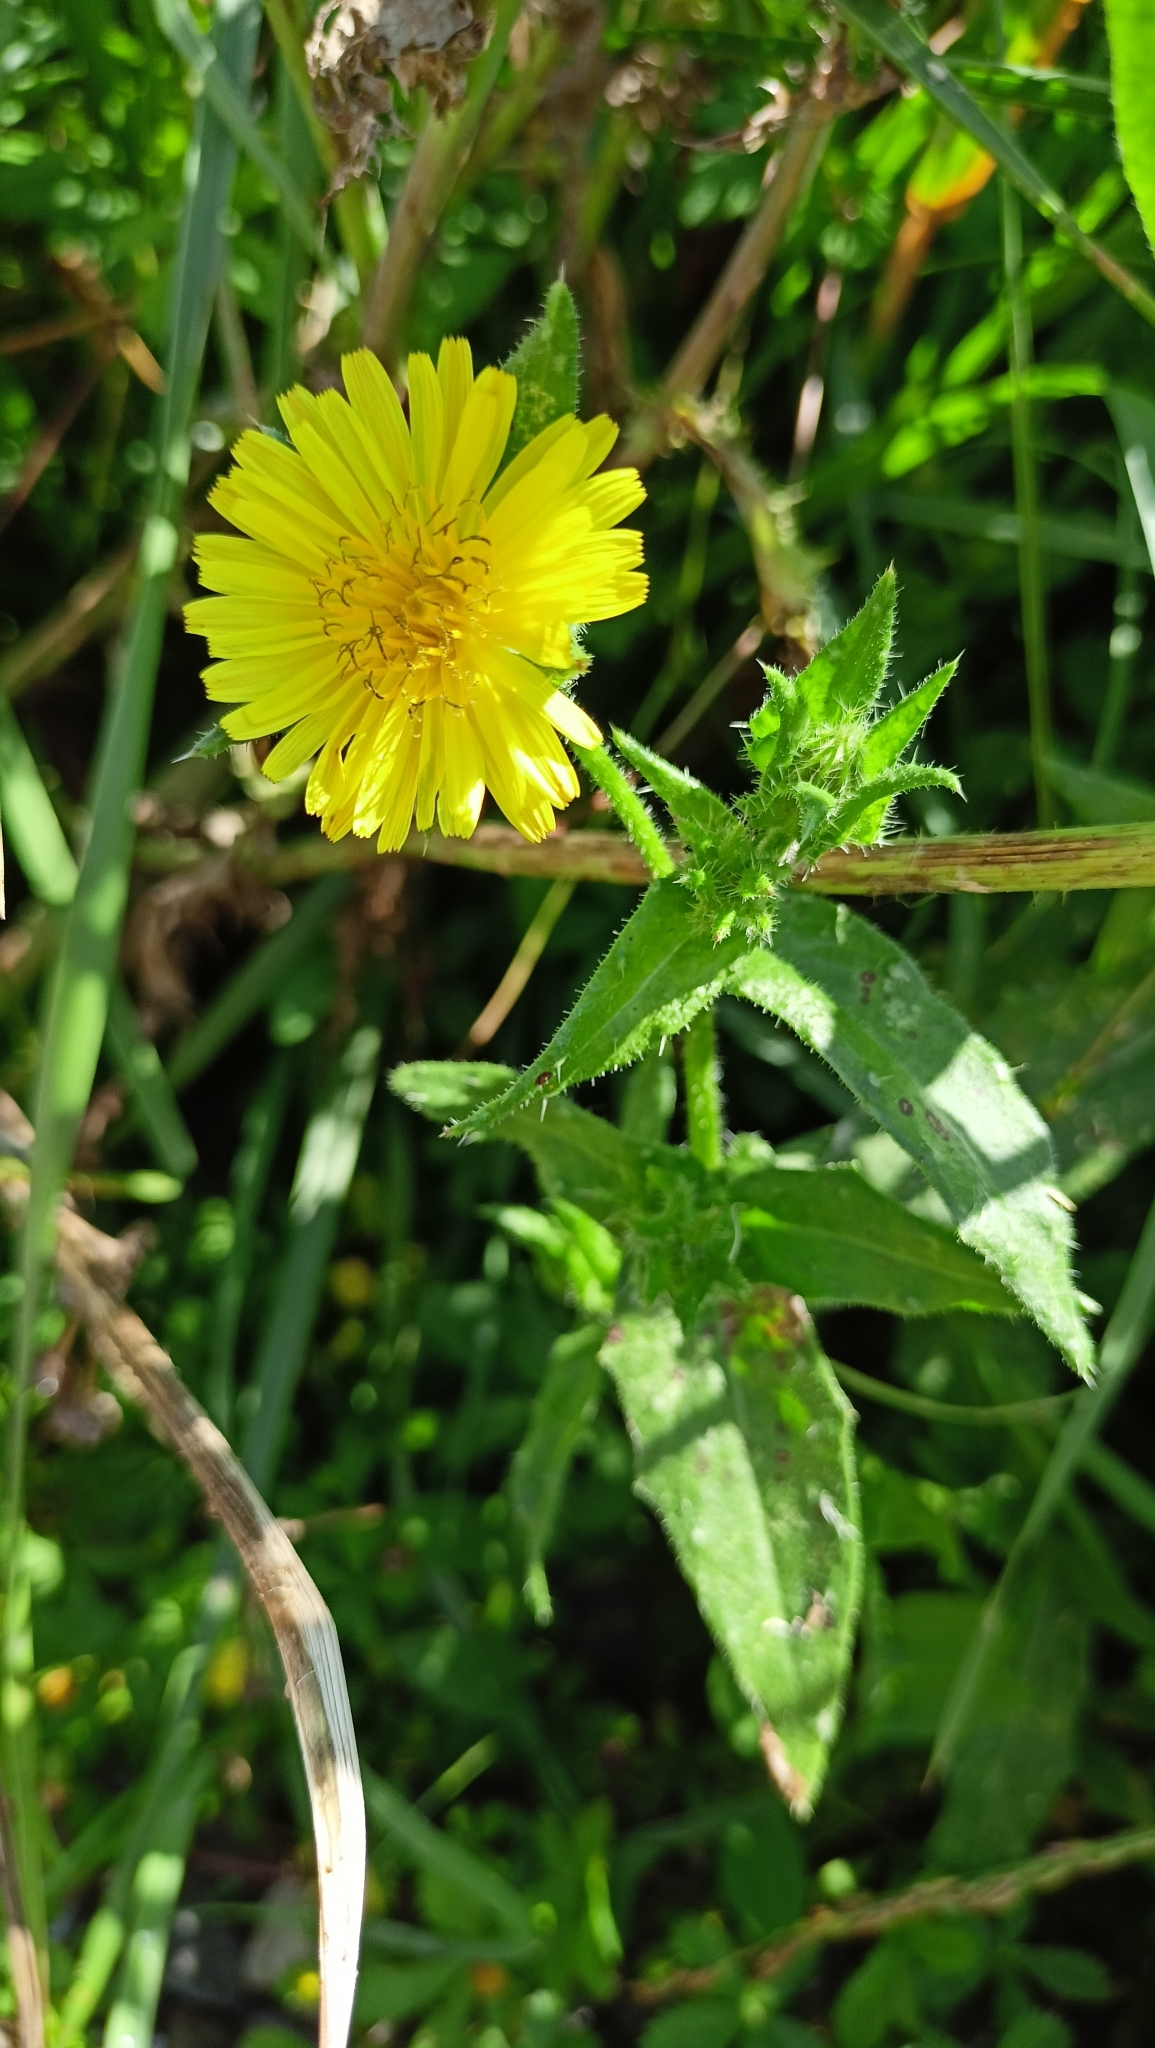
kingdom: Plantae
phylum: Tracheophyta
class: Magnoliopsida
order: Asterales
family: Asteraceae
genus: Helminthotheca
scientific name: Helminthotheca echioides
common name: Ox-tongue
